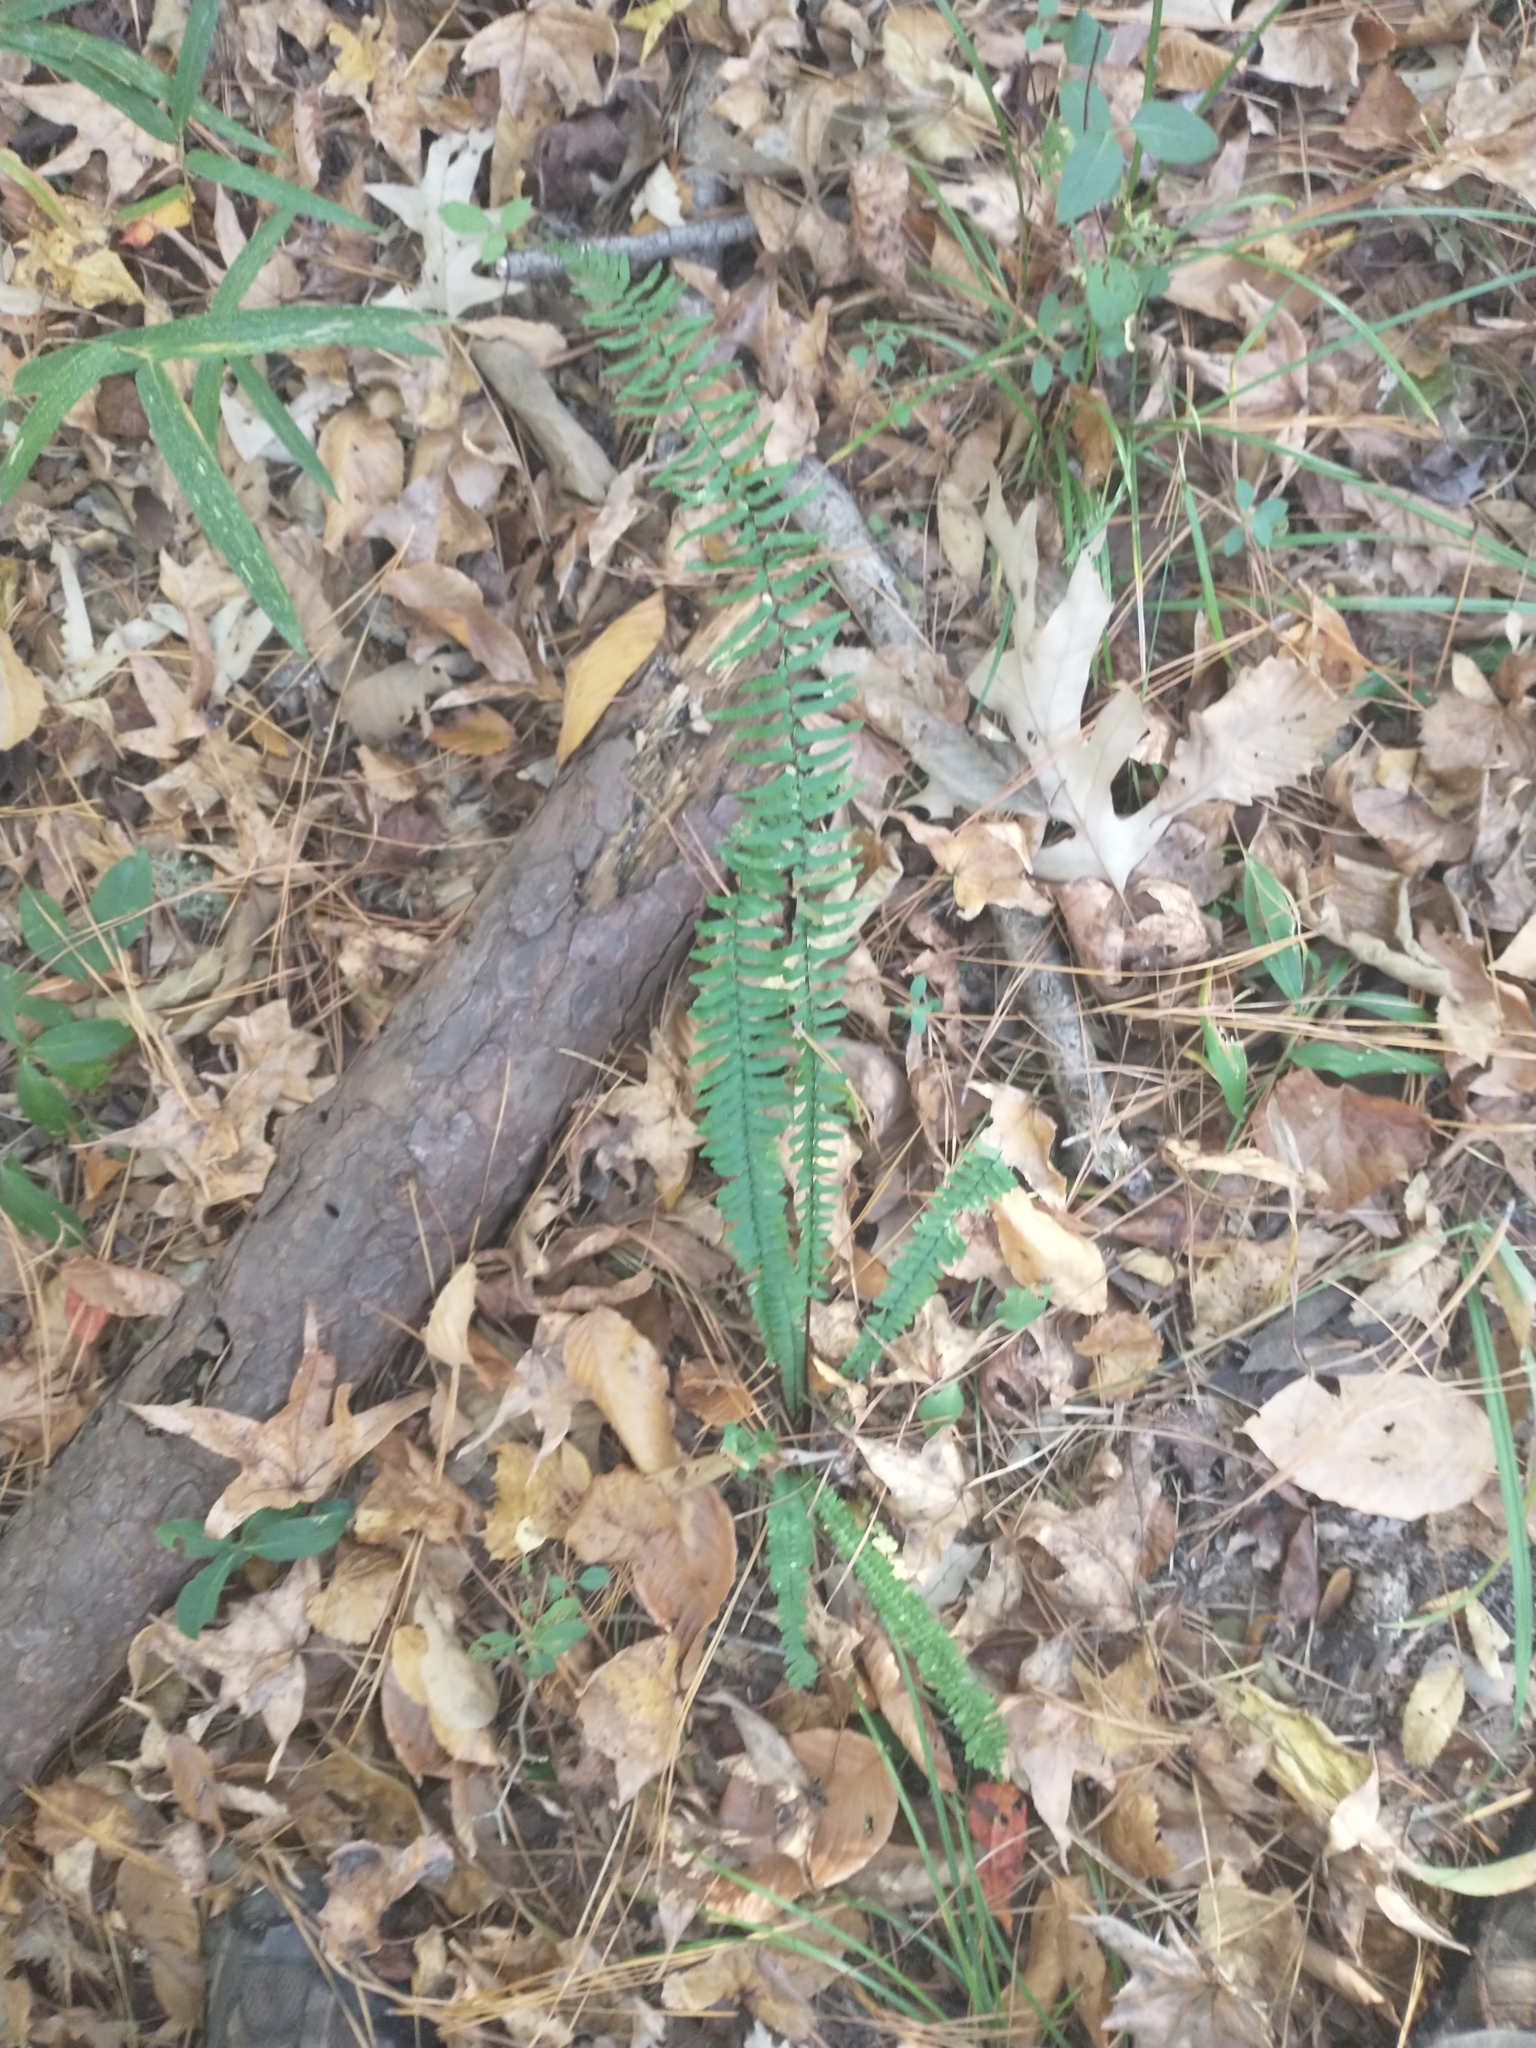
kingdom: Plantae
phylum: Tracheophyta
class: Polypodiopsida
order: Polypodiales
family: Aspleniaceae
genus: Asplenium
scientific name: Asplenium platyneuron
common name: Ebony spleenwort
